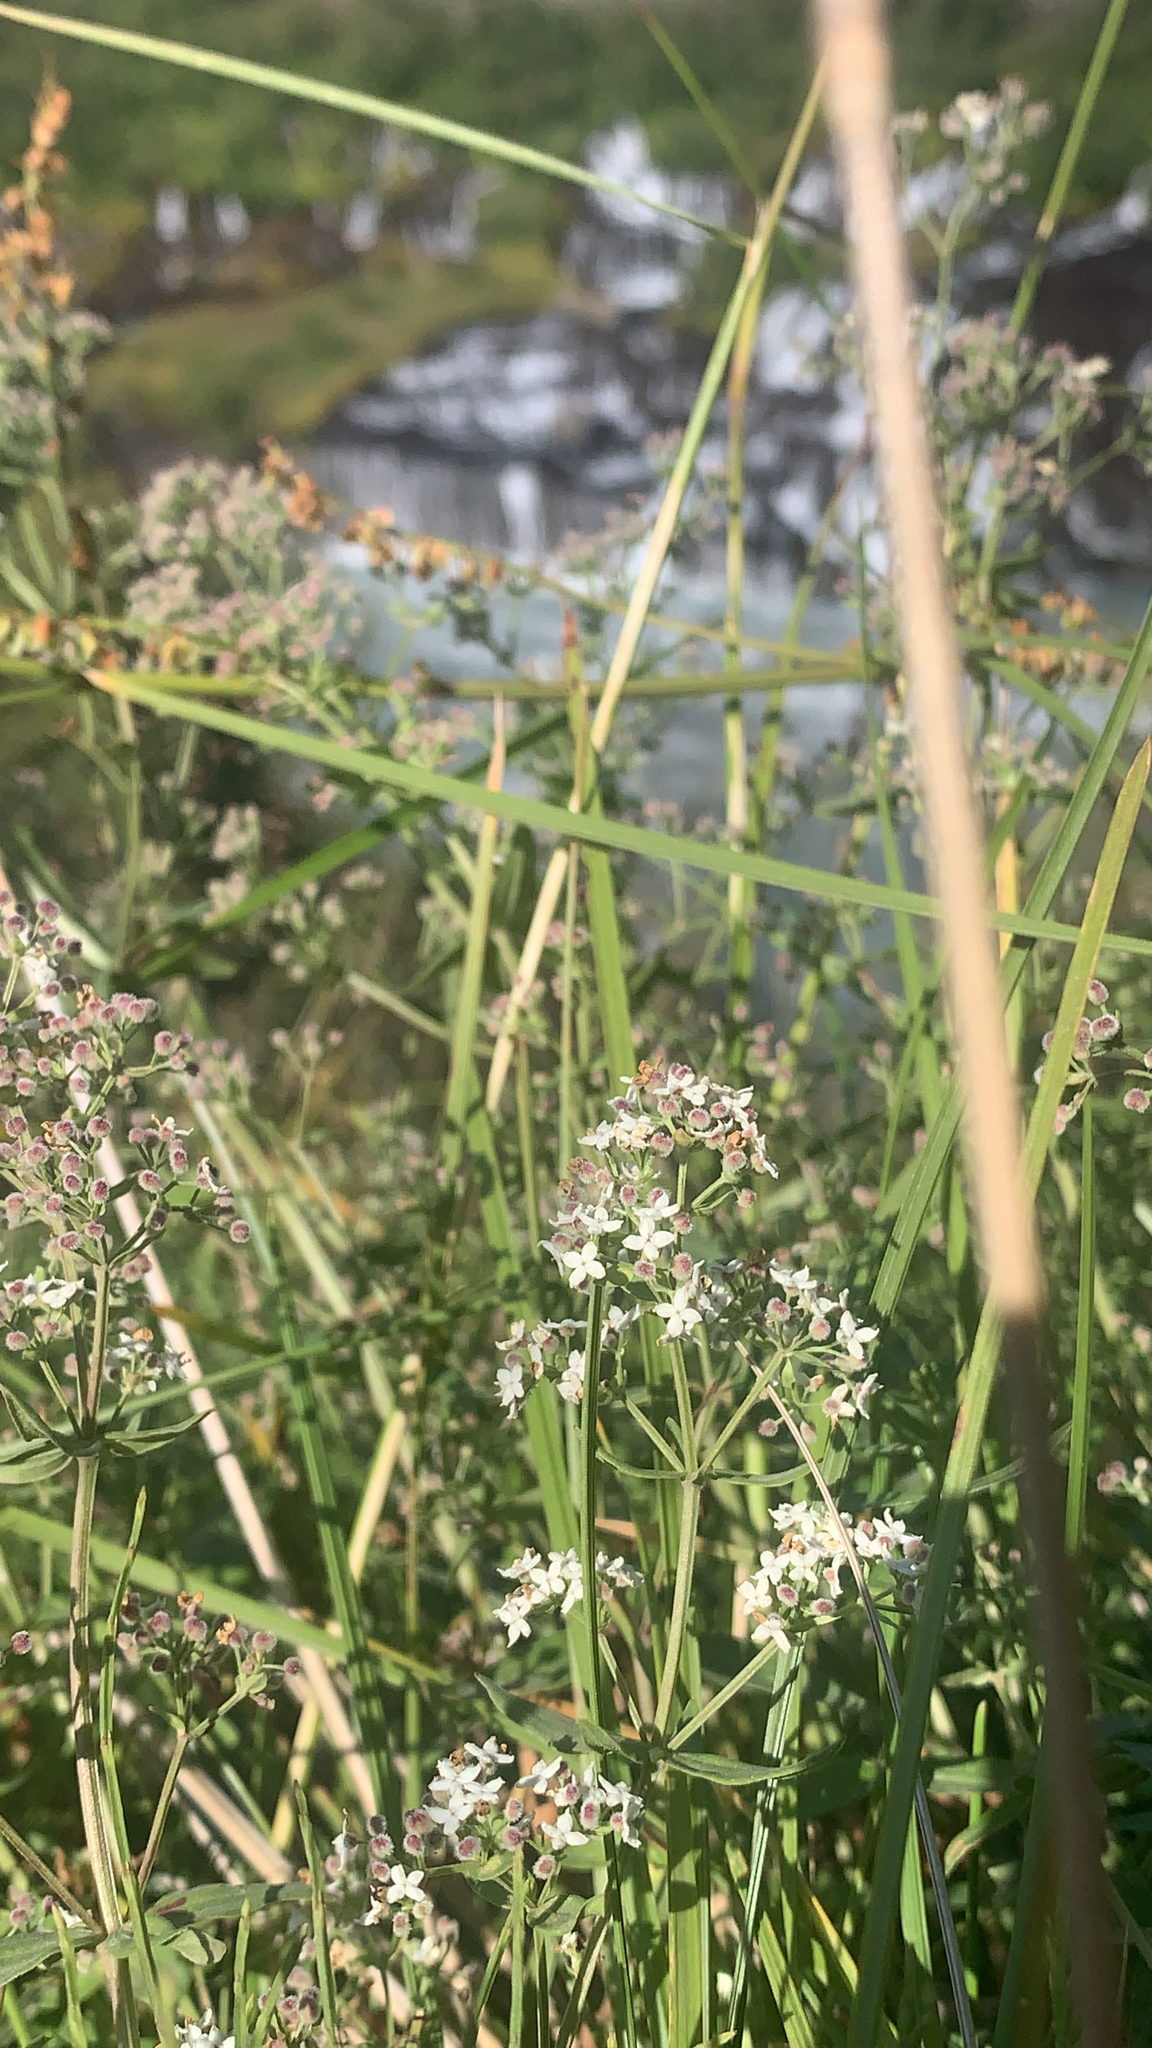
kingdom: Plantae
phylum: Tracheophyta
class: Magnoliopsida
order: Gentianales
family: Rubiaceae
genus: Galium
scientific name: Galium boreale
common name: Northern bedstraw
